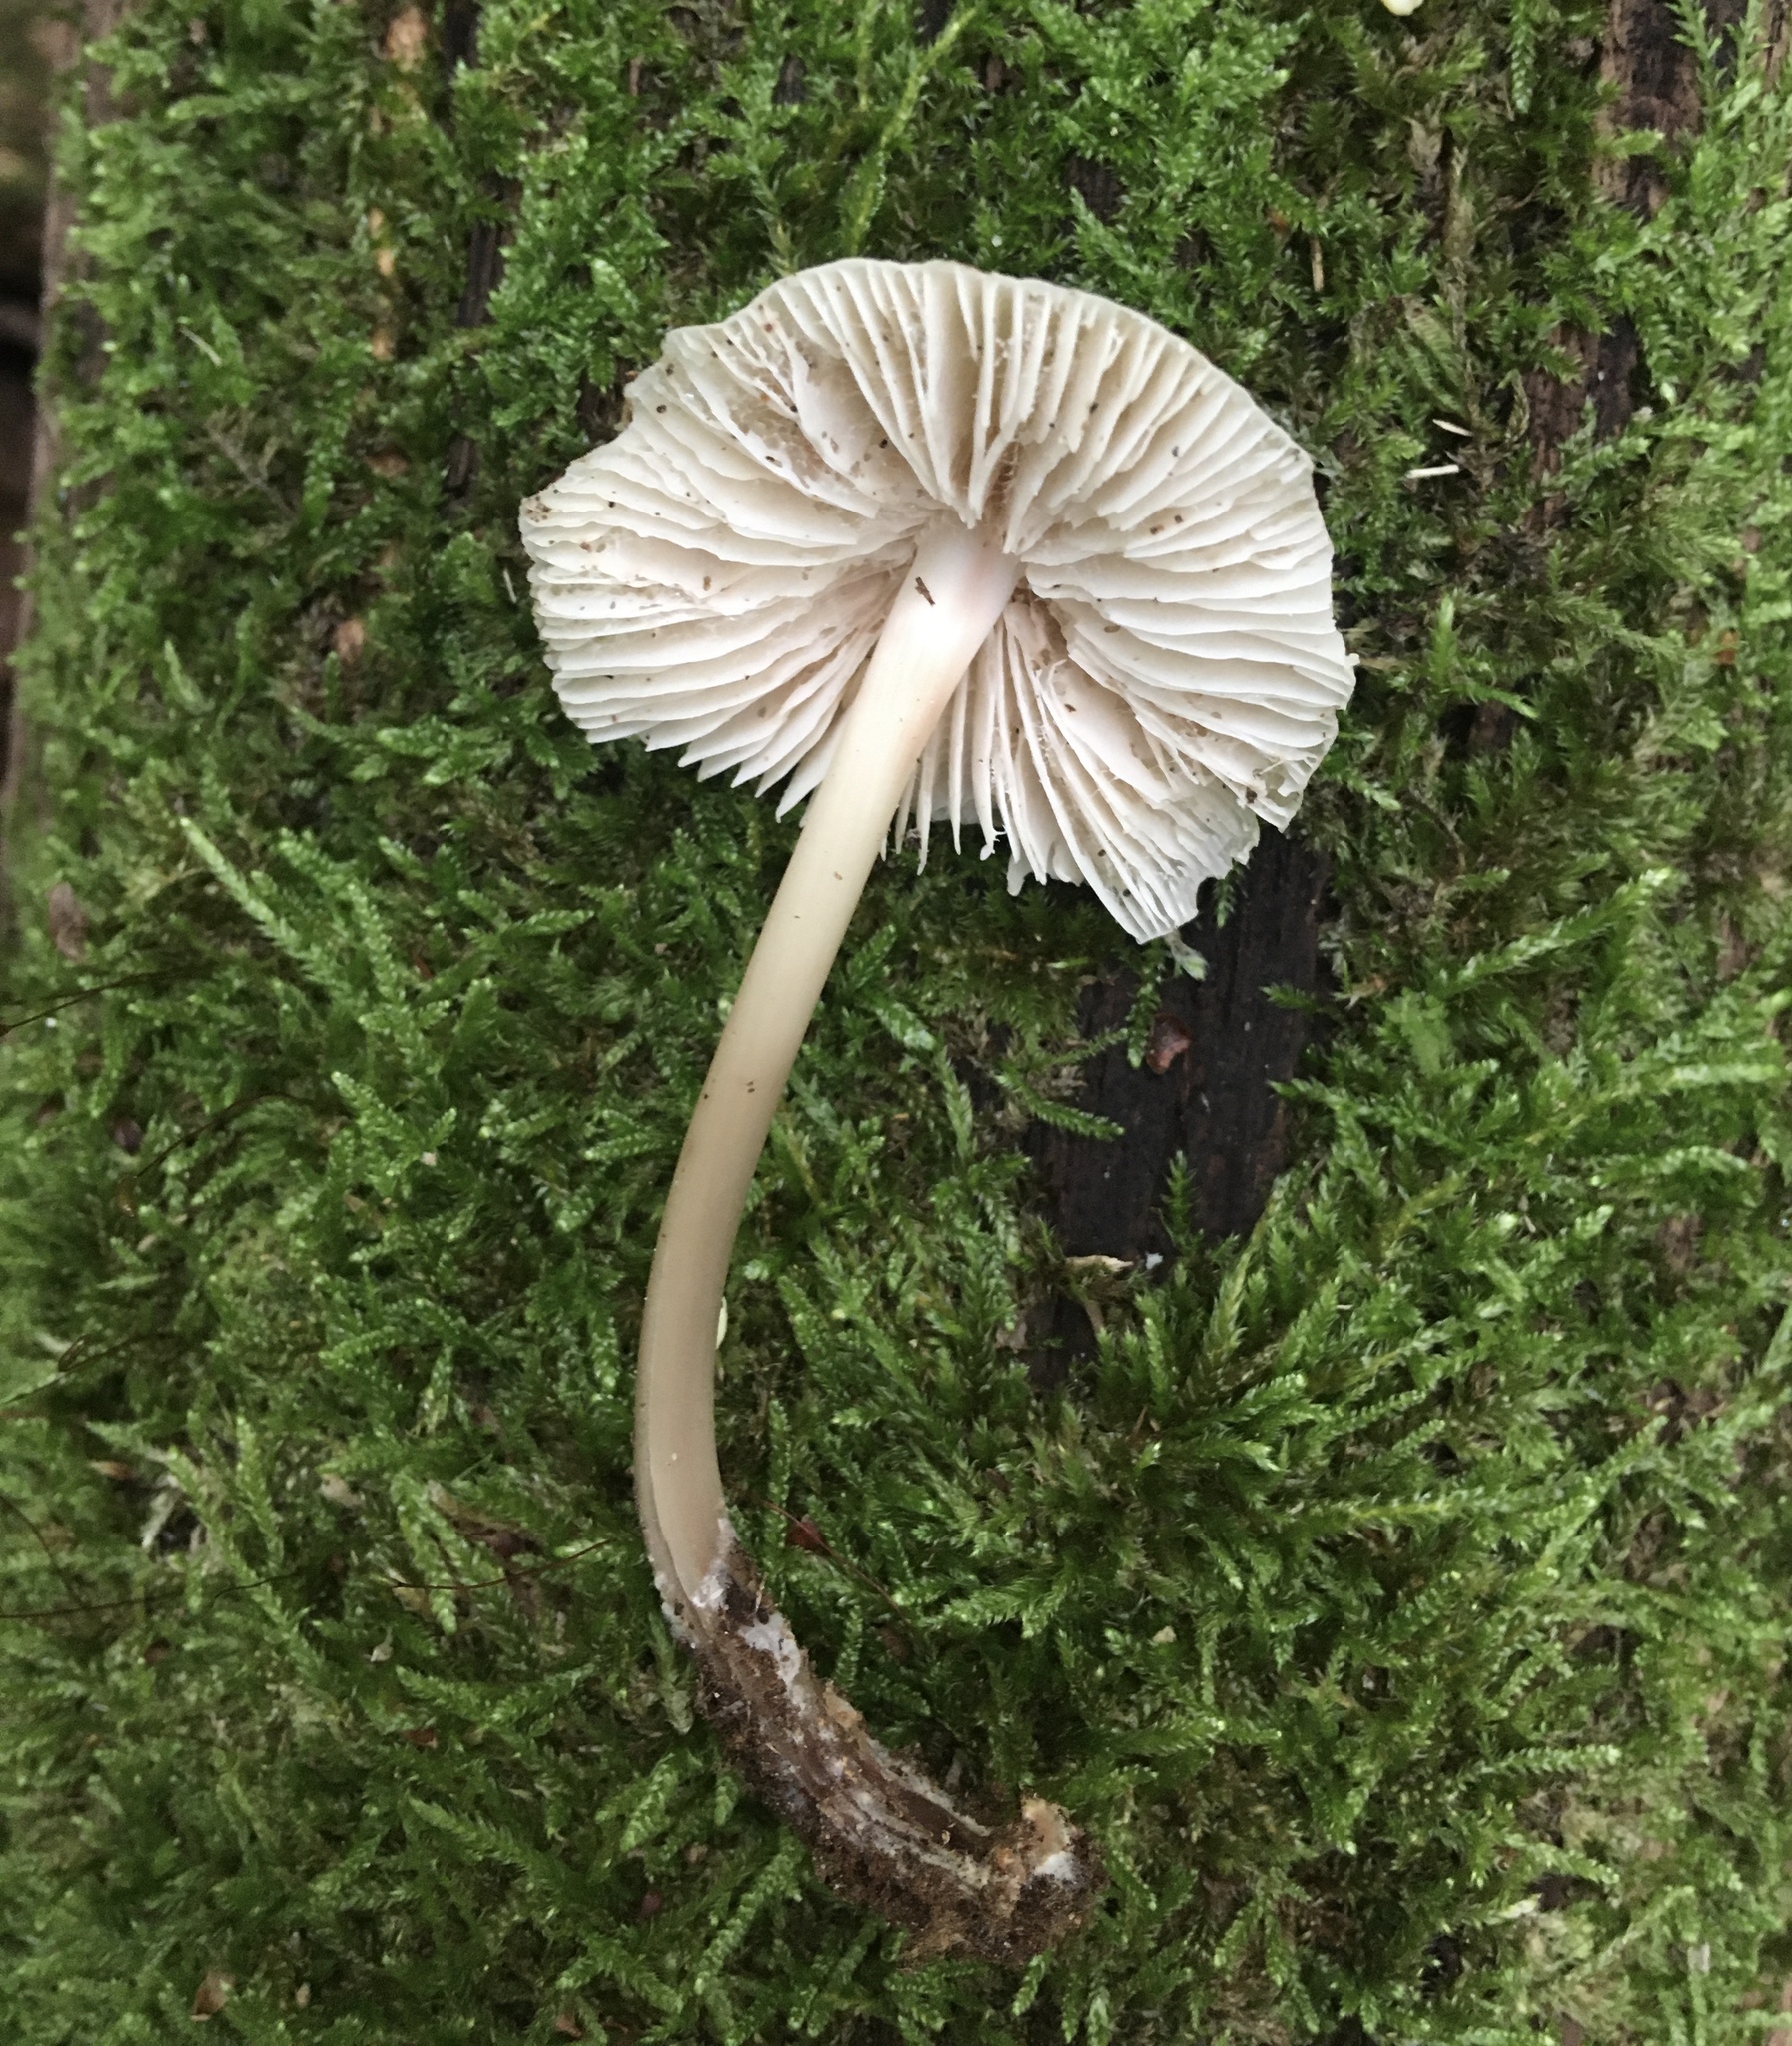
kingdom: Fungi
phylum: Basidiomycota
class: Agaricomycetes
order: Agaricales
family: Mycenaceae
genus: Mycena
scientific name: Mycena galericulata
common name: Bonnet mycena
